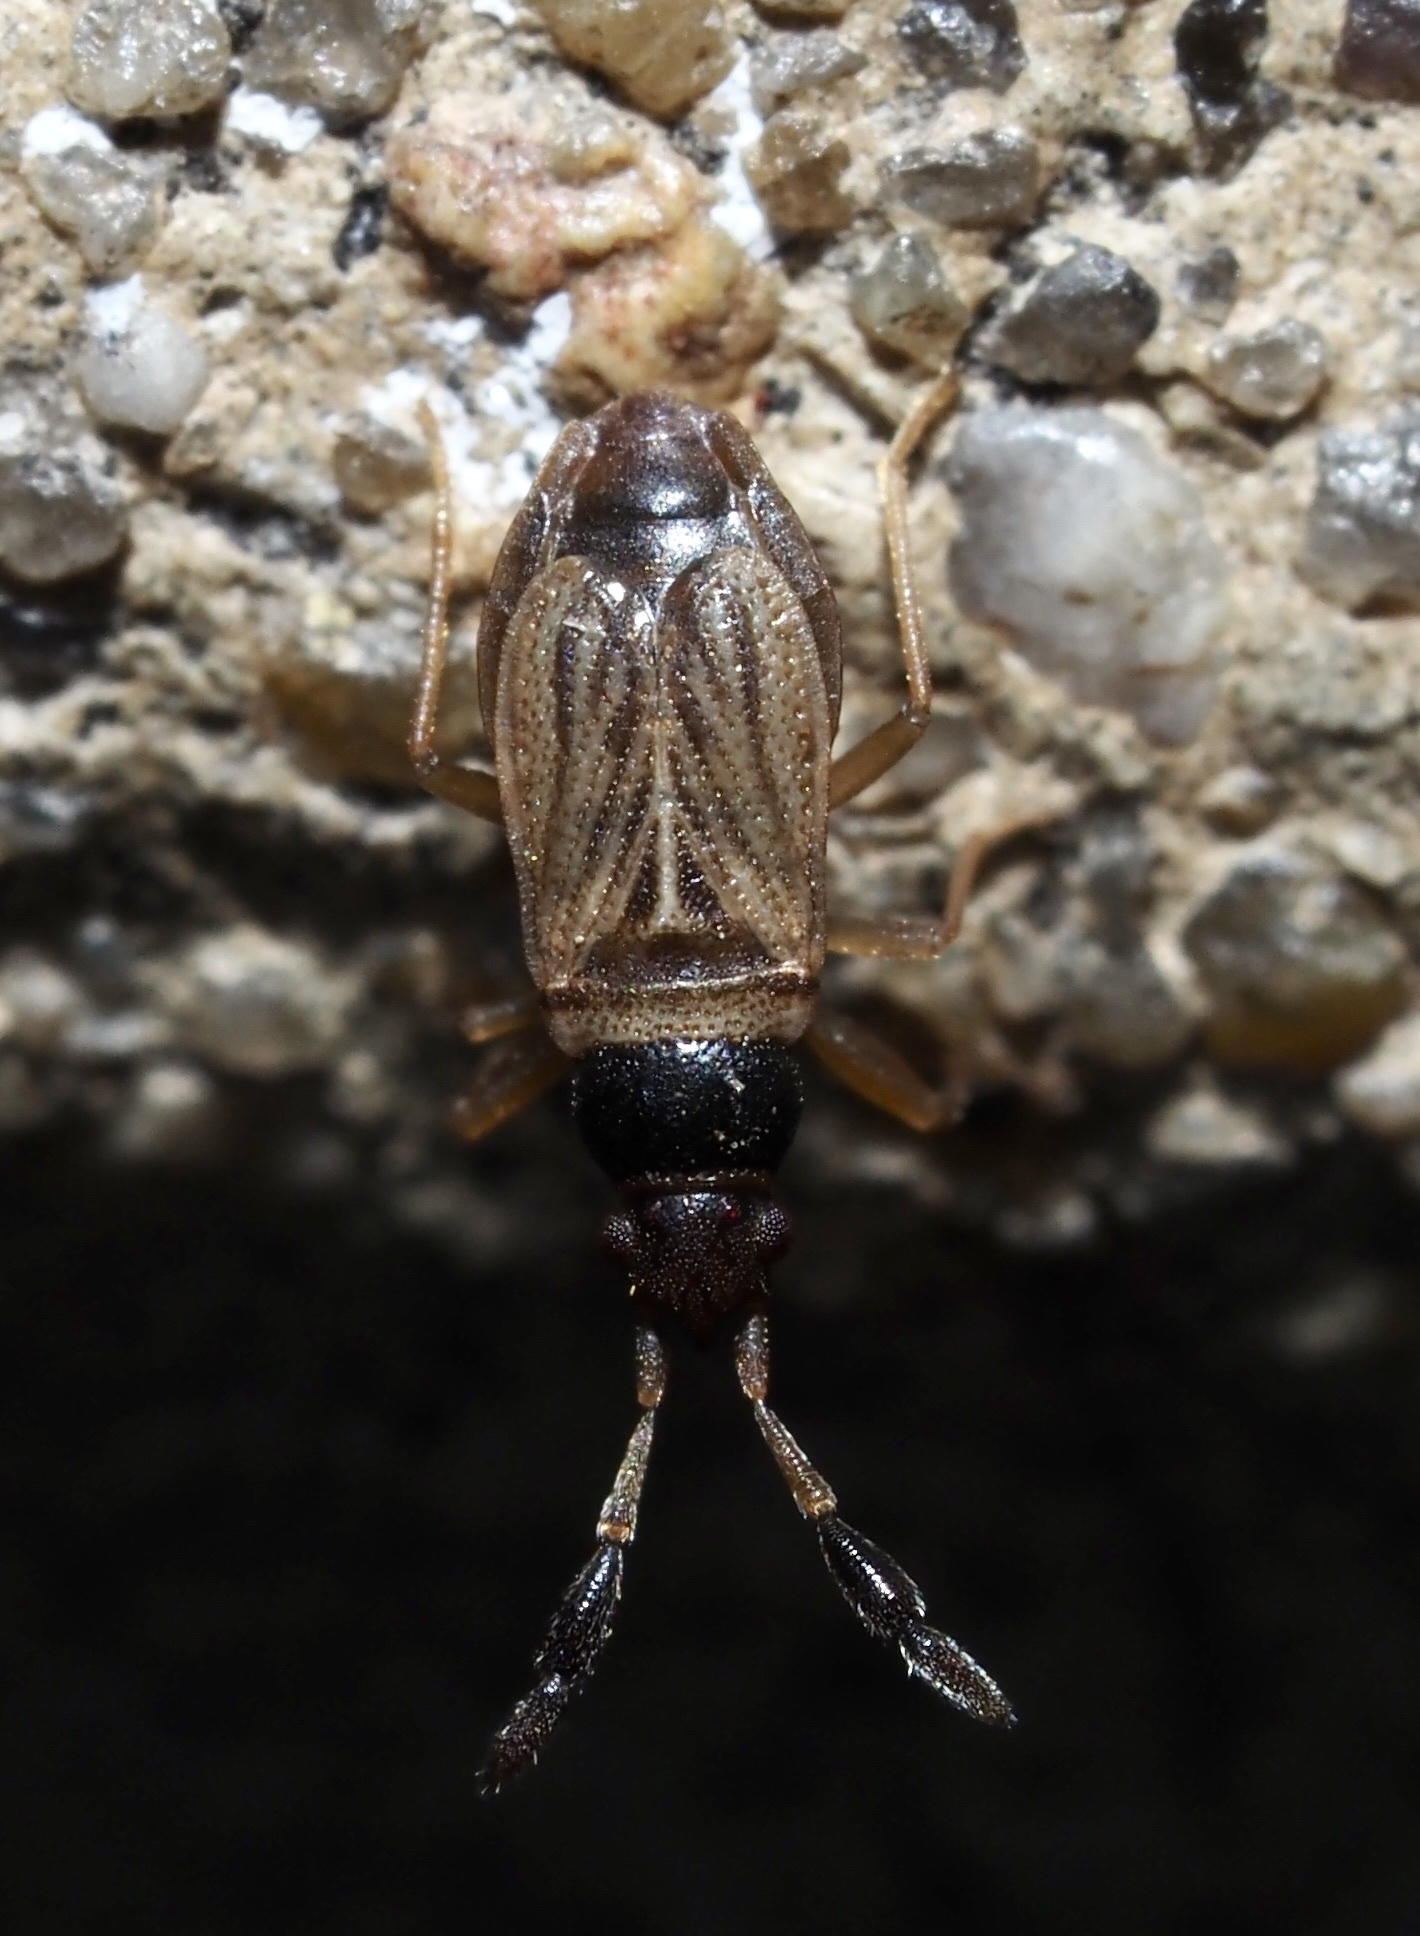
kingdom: Animalia
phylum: Arthropoda
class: Insecta
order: Hemiptera
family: Rhyparochromidae
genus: Ptochiomera
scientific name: Ptochiomera nodosa
